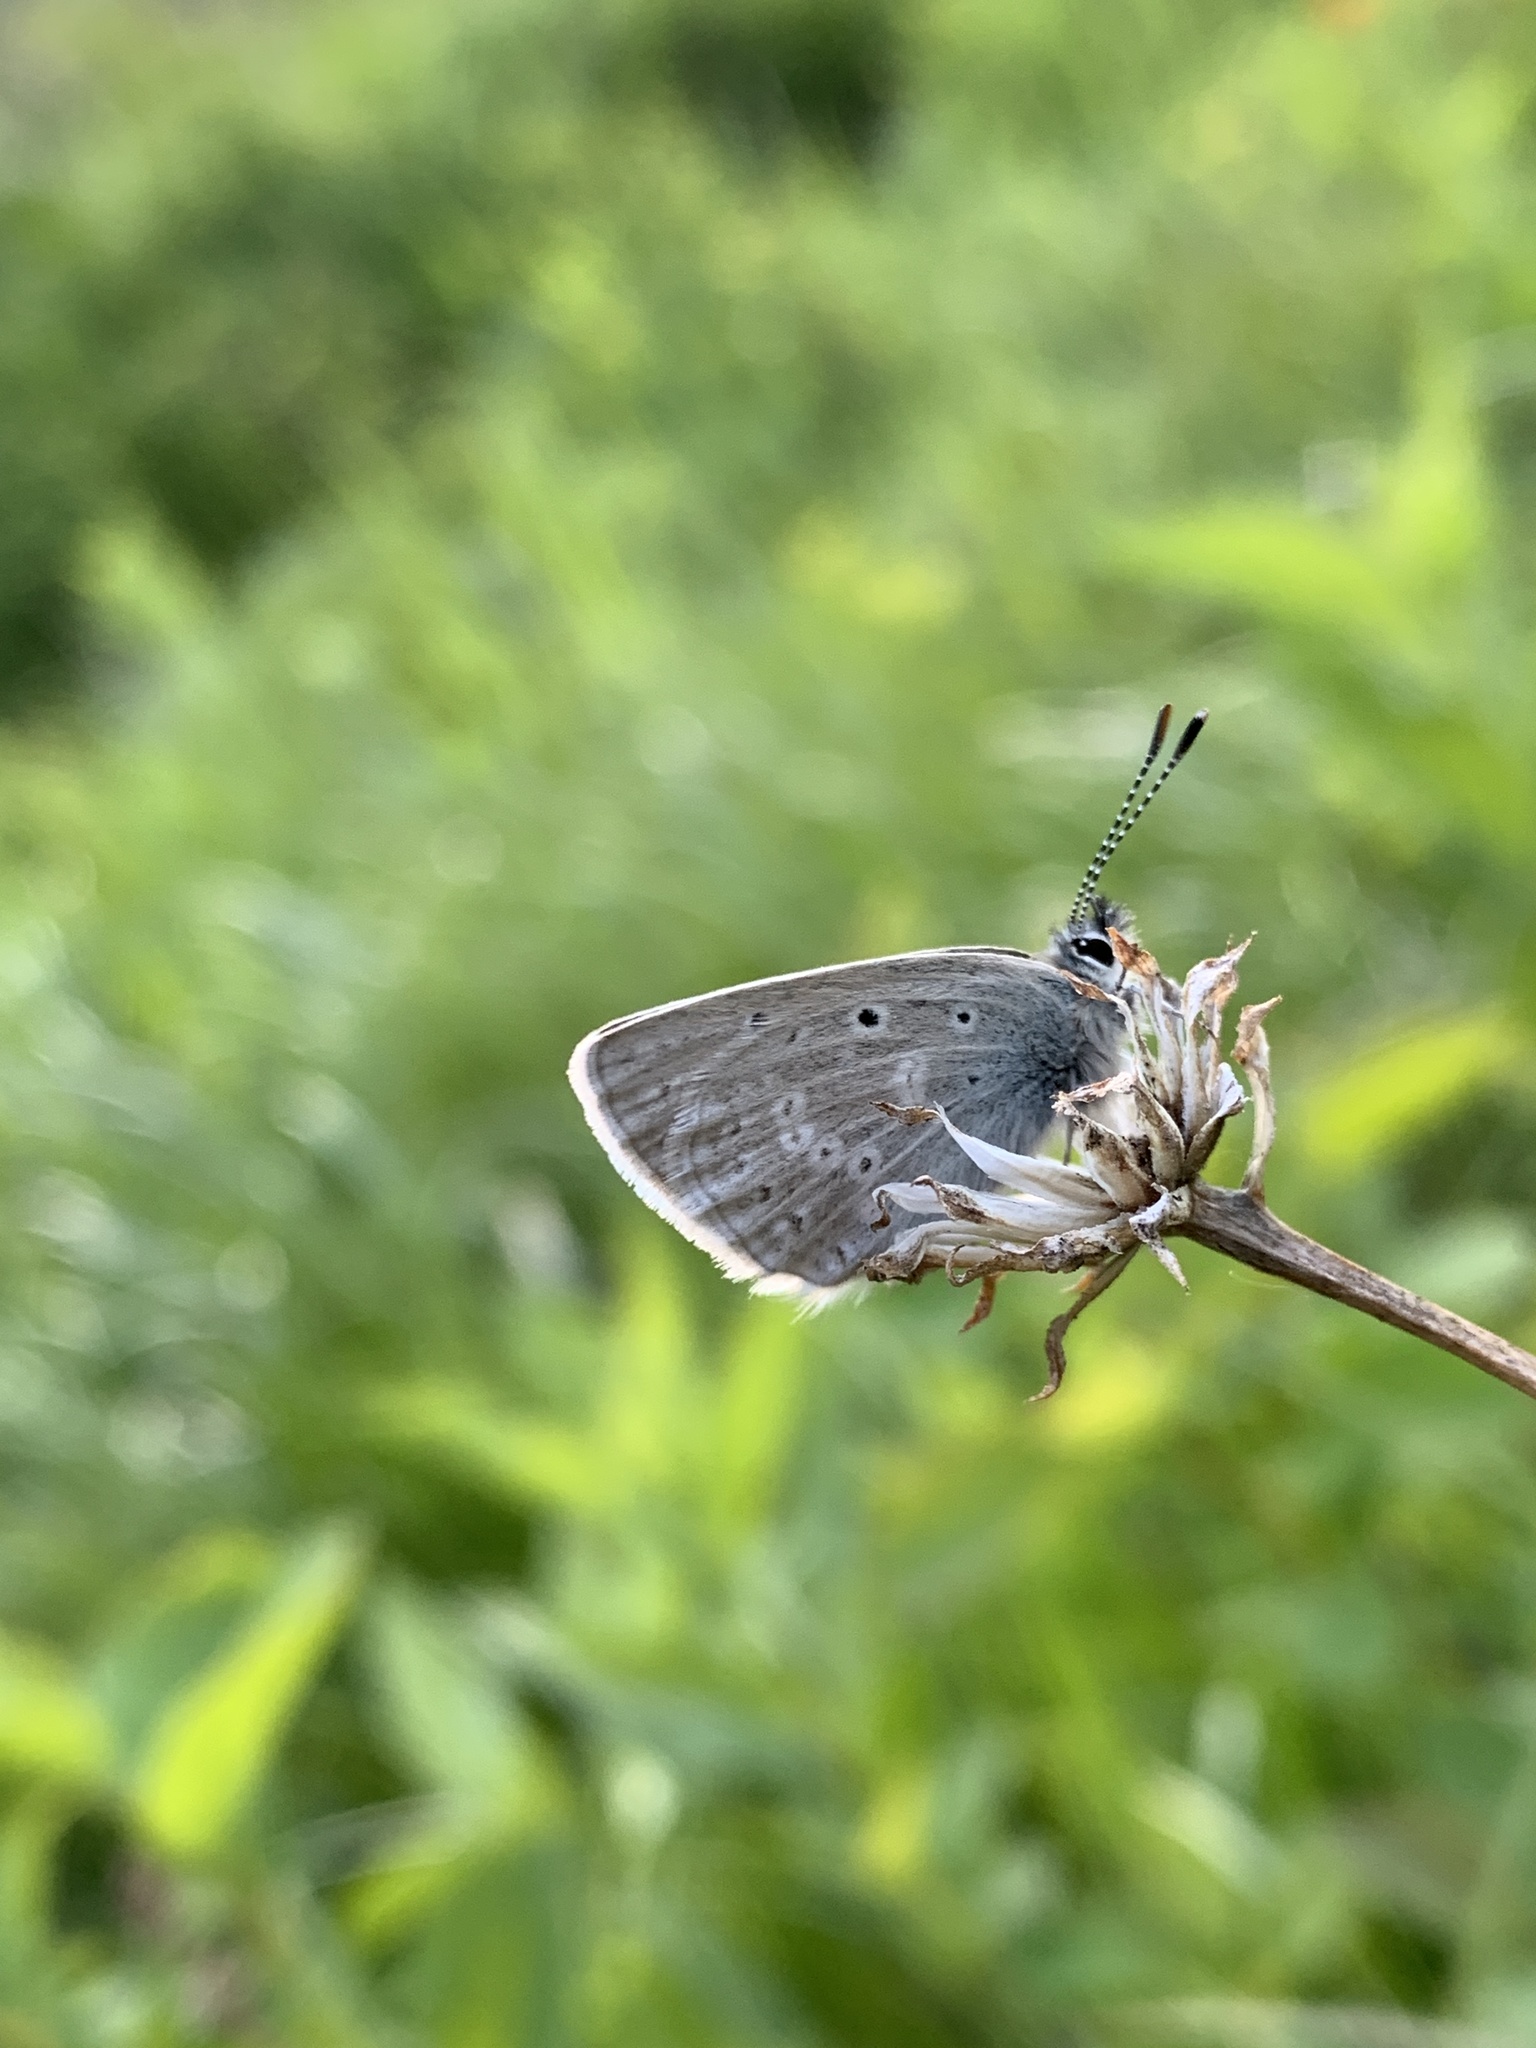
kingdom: Animalia
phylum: Arthropoda
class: Insecta
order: Lepidoptera
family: Lycaenidae
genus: Icaricia
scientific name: Icaricia icarioides
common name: Boisduval's blue
